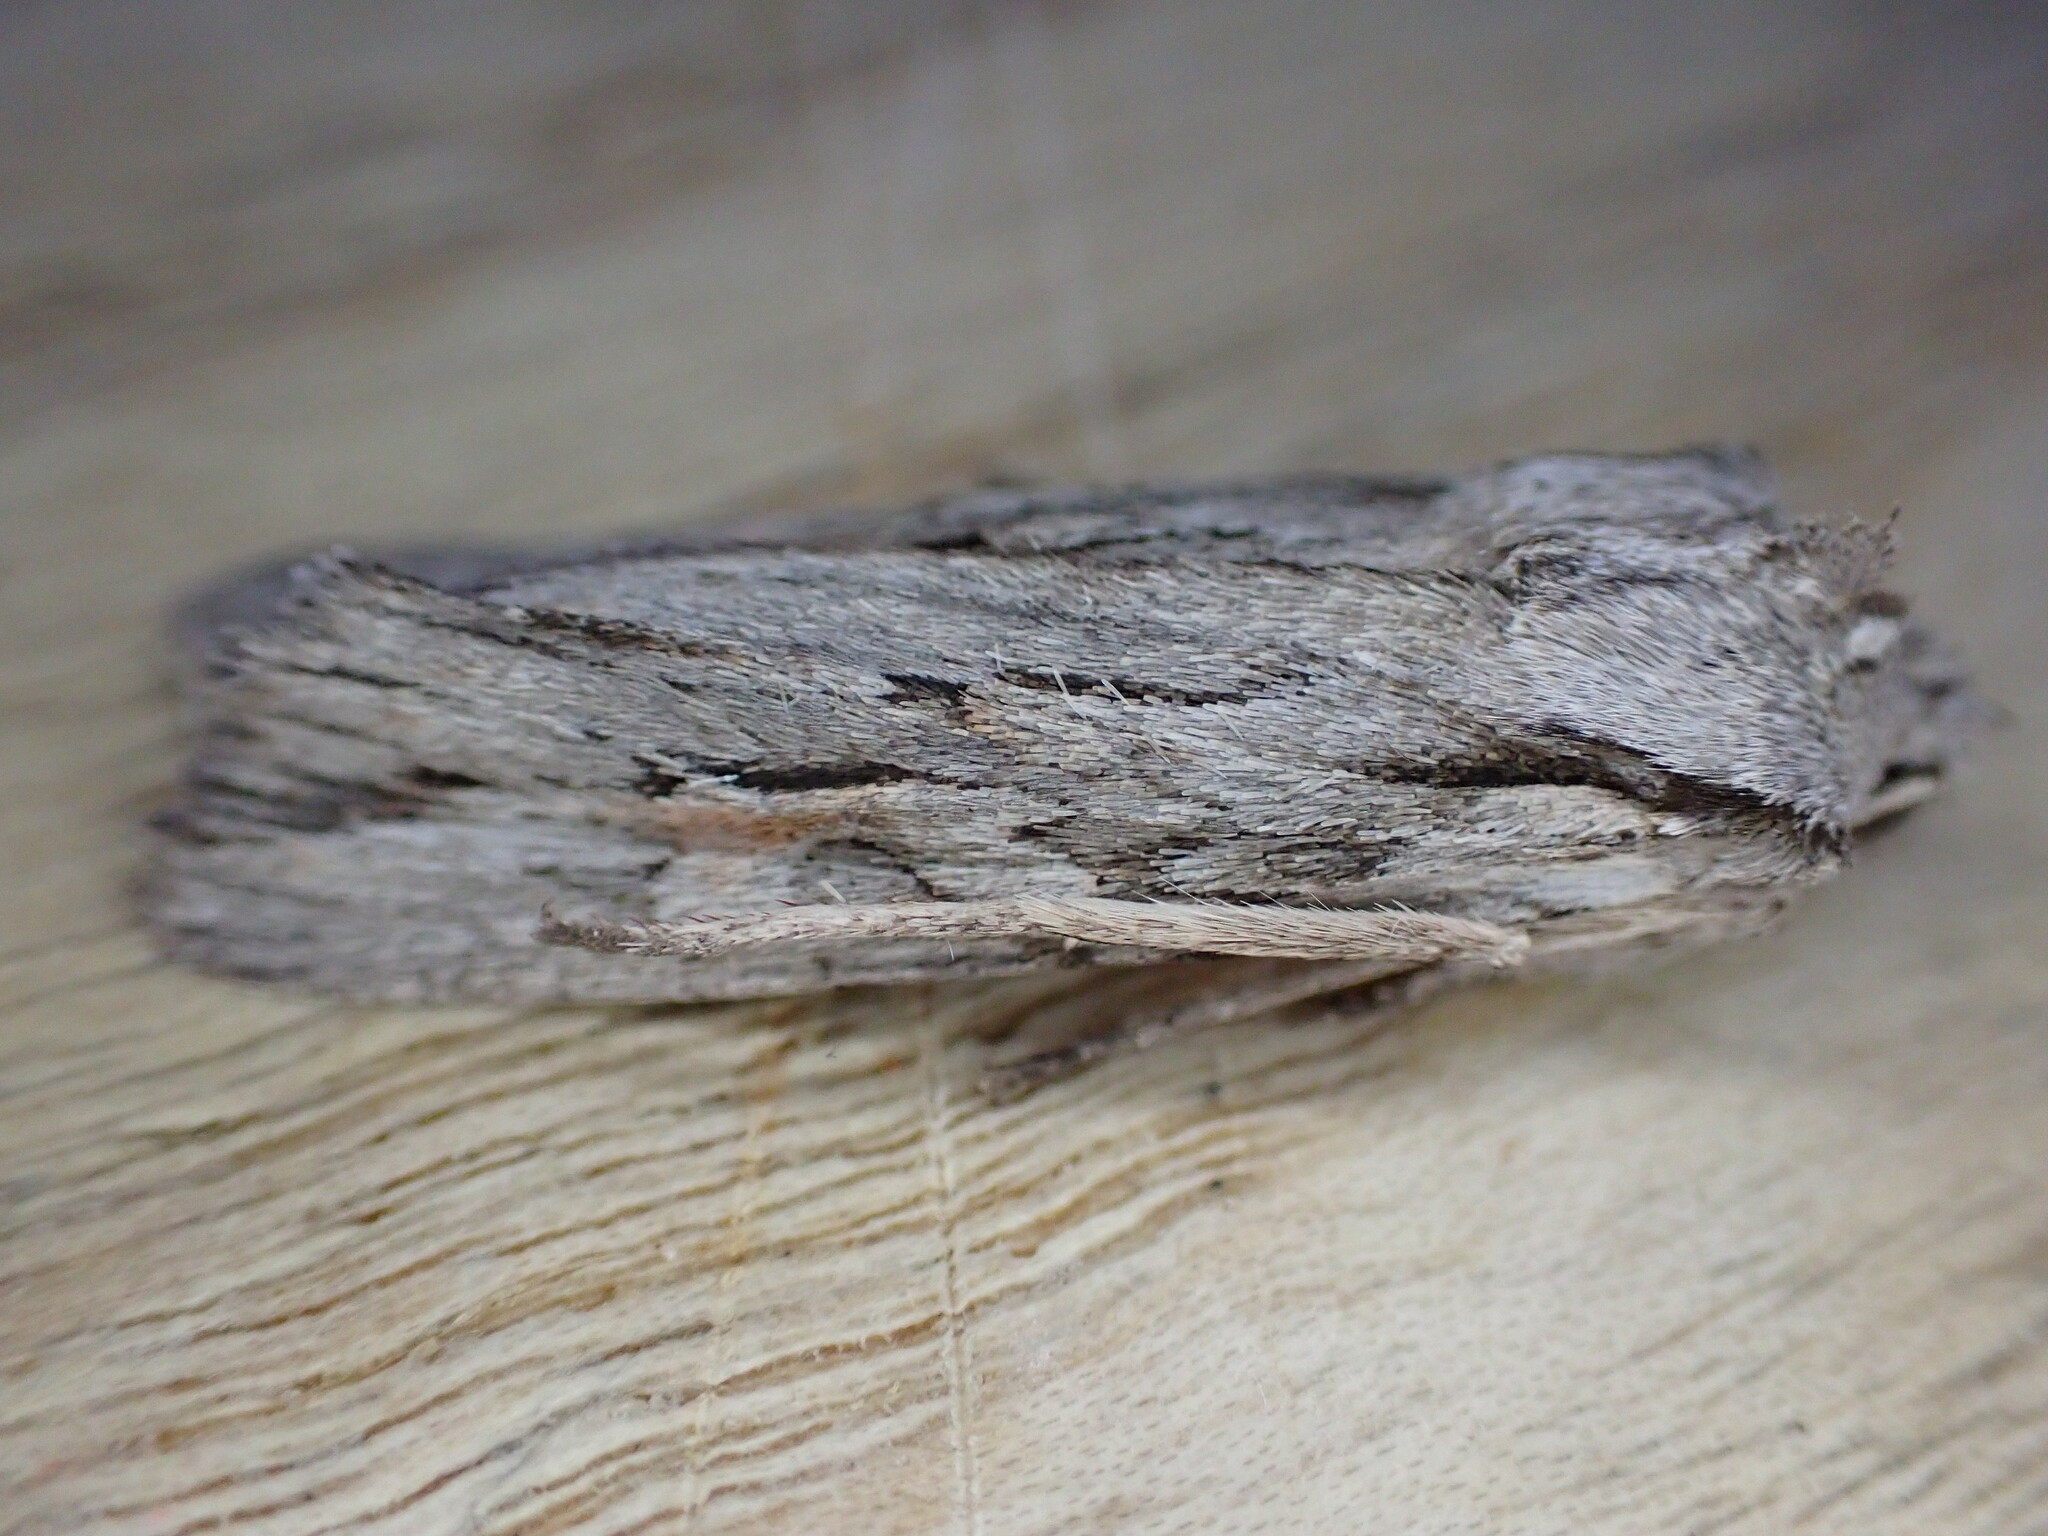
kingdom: Animalia
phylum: Arthropoda
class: Insecta
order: Lepidoptera
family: Noctuidae
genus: Lithophane
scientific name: Lithophane leautieri
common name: Blair's shoulder-knot
